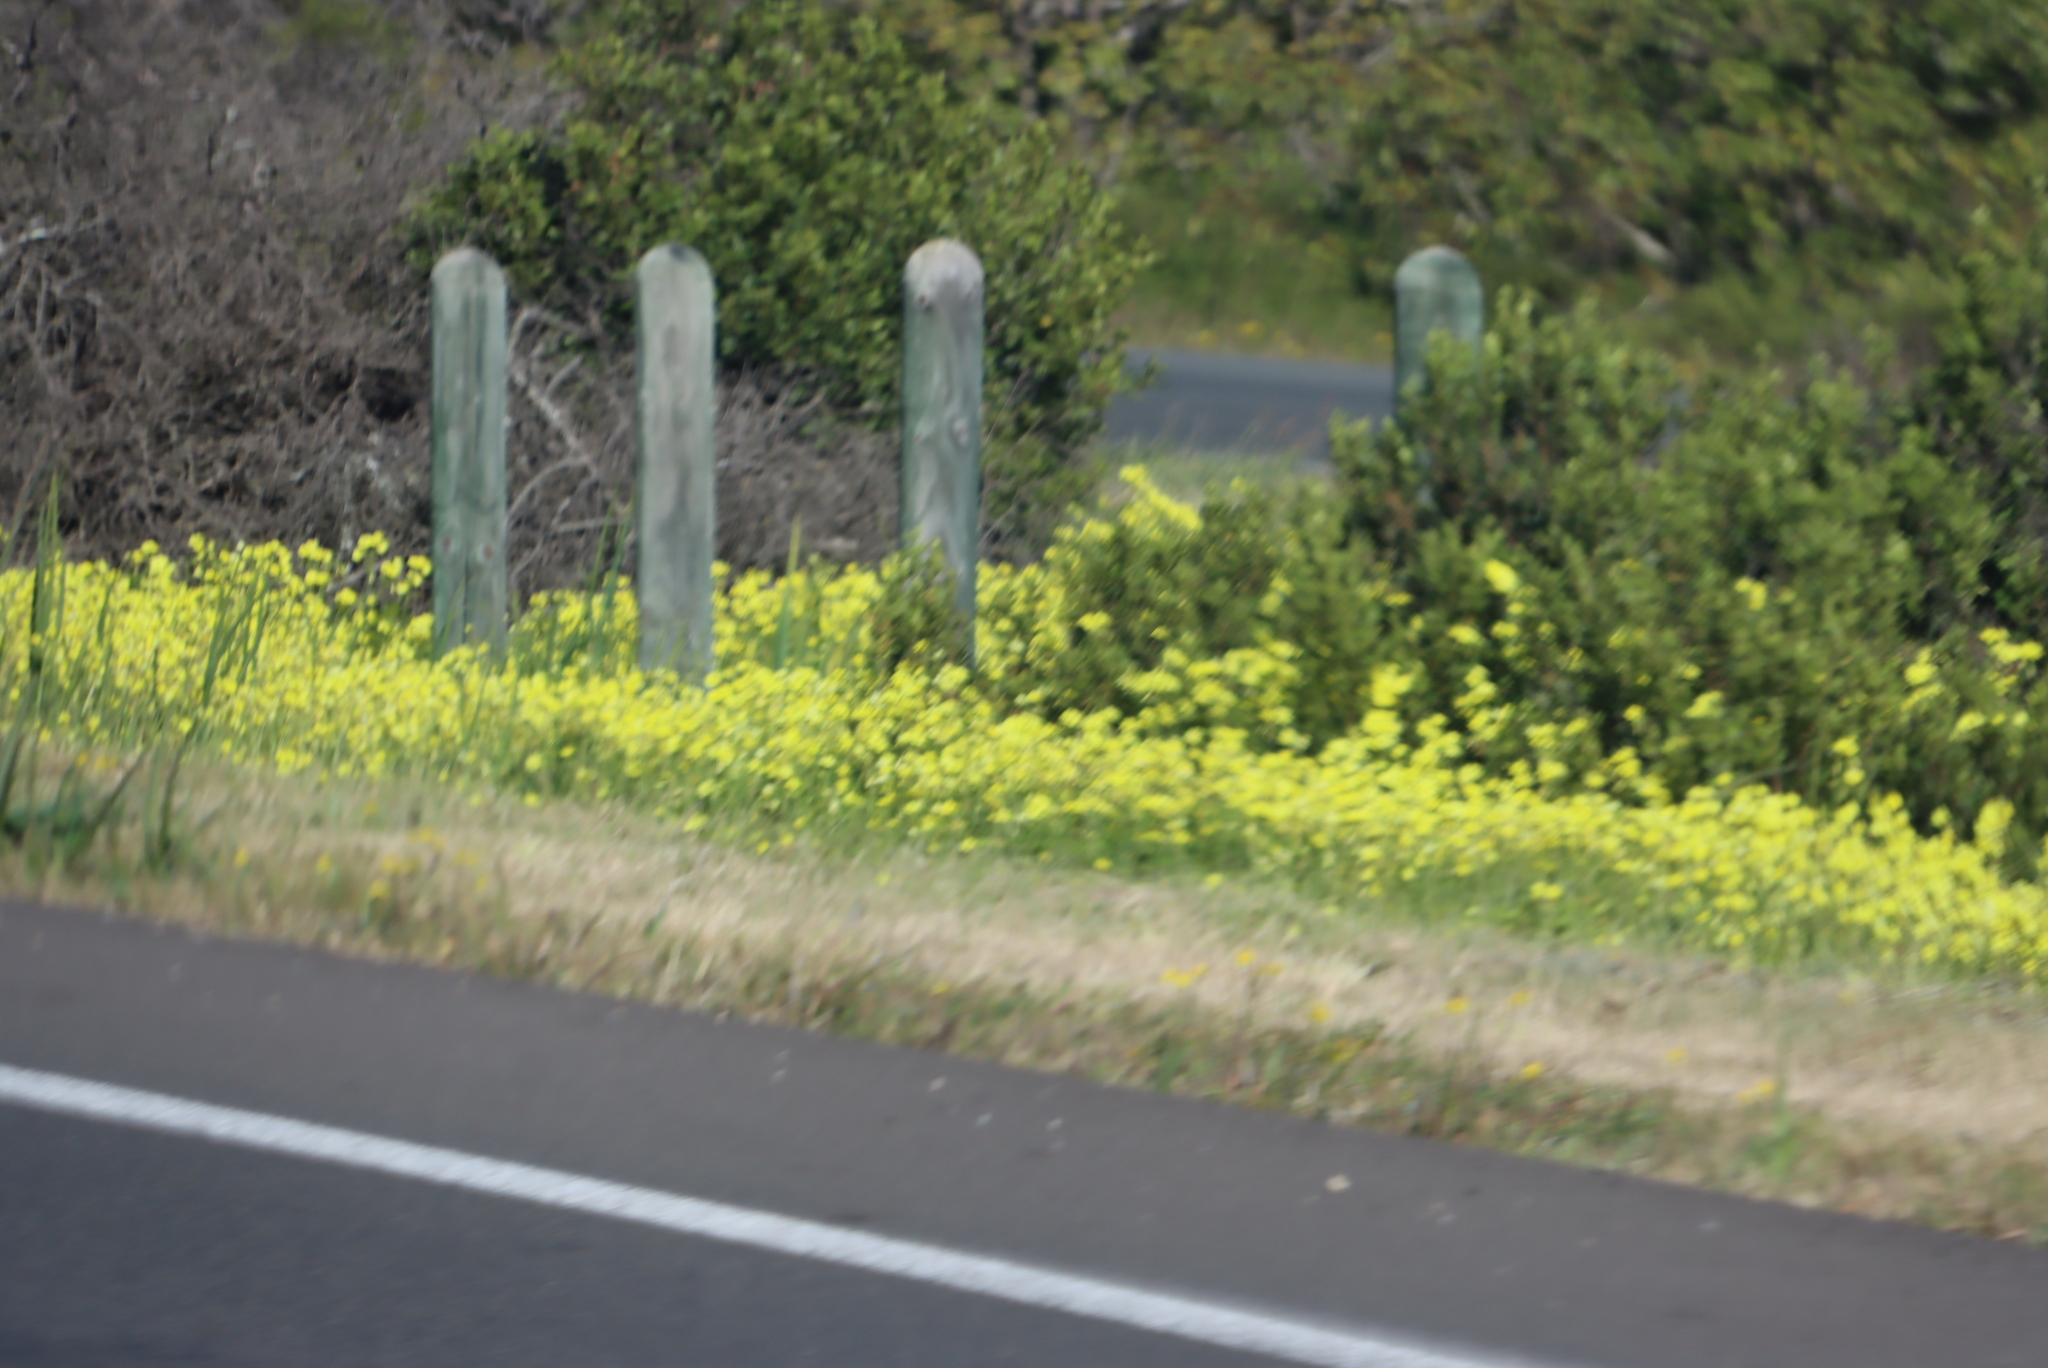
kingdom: Plantae
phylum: Tracheophyta
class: Magnoliopsida
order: Oxalidales
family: Oxalidaceae
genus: Oxalis
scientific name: Oxalis pes-caprae
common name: Bermuda-buttercup
